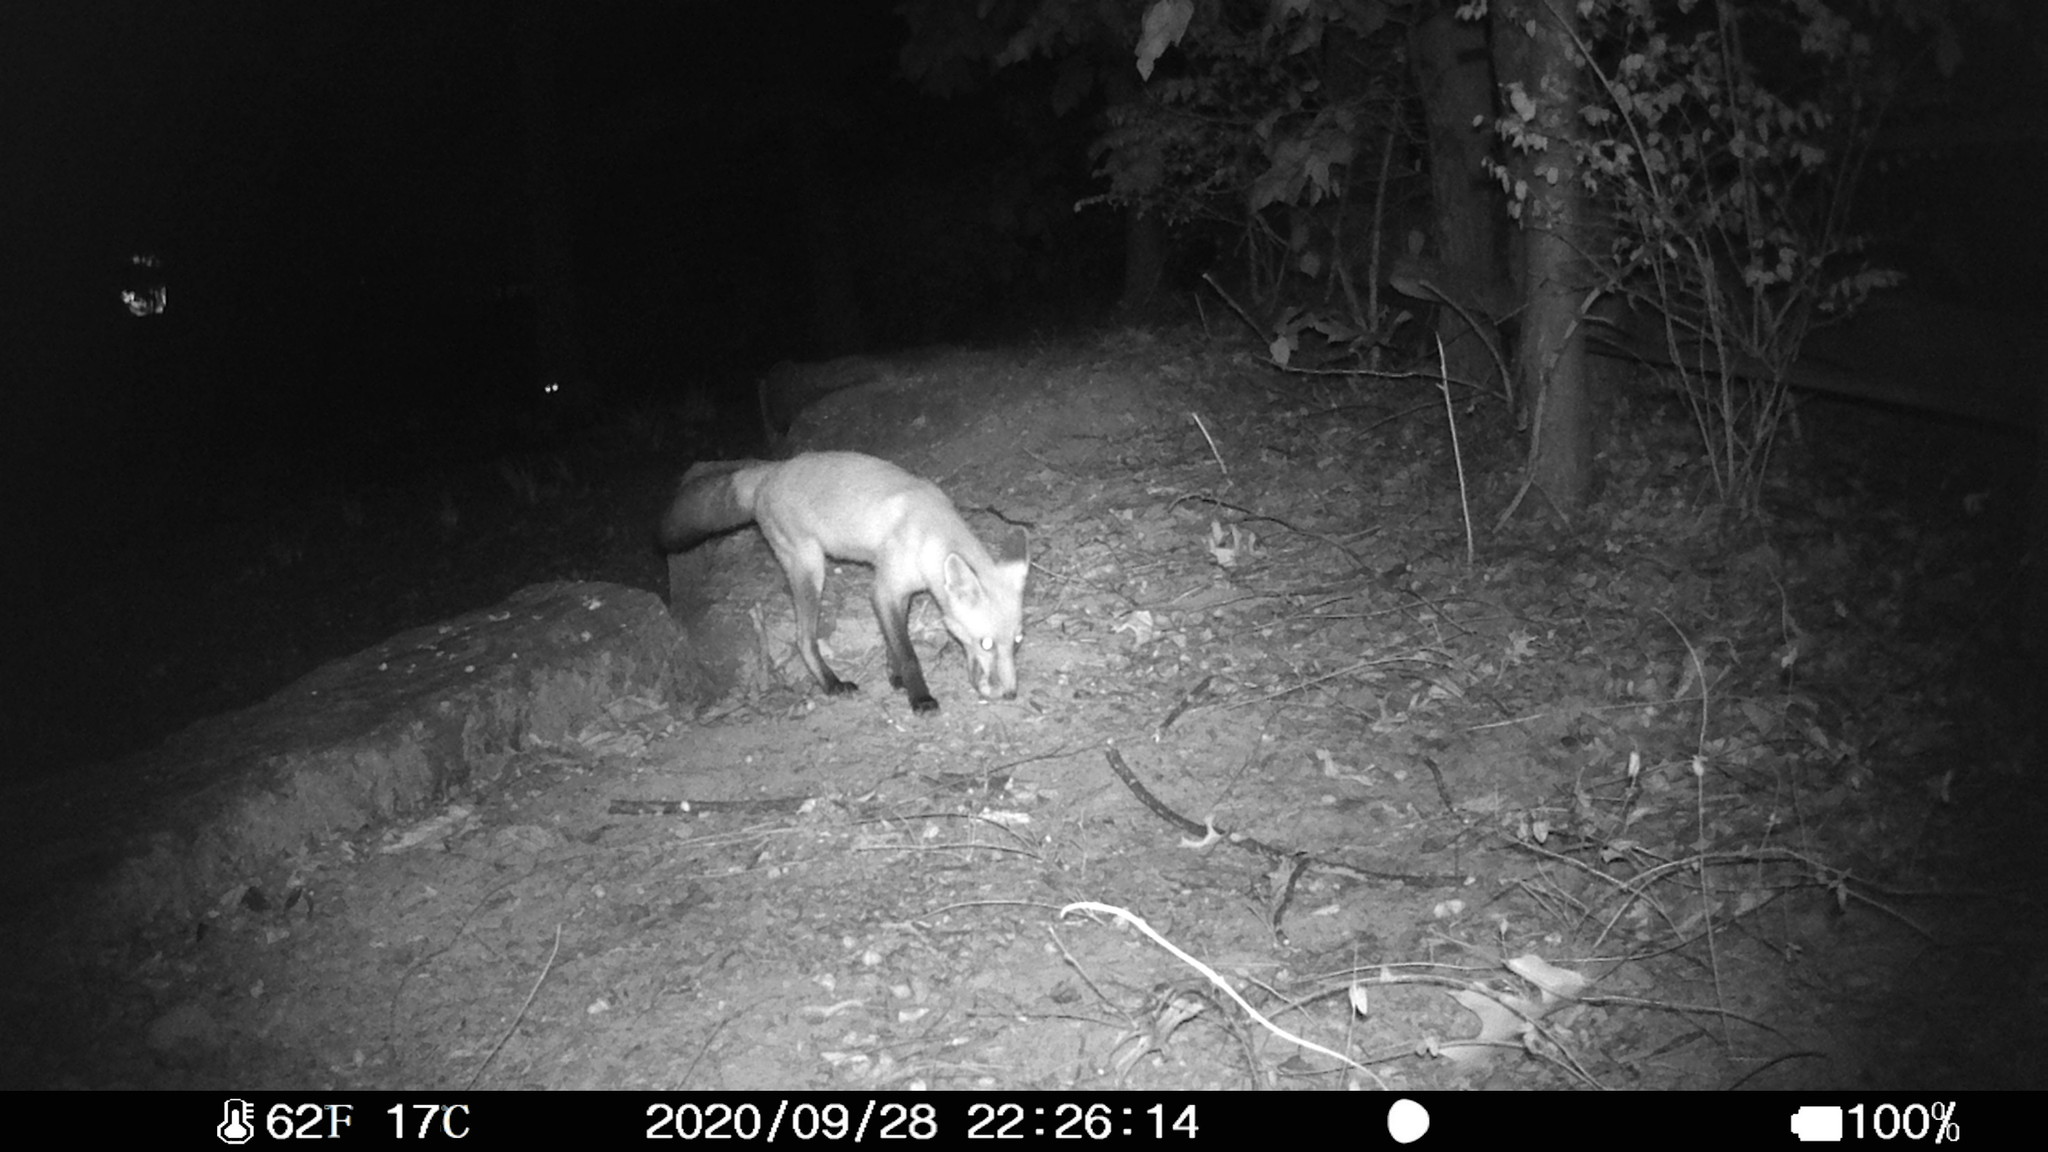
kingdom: Animalia
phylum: Chordata
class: Mammalia
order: Carnivora
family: Canidae
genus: Vulpes
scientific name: Vulpes vulpes
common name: Red fox
